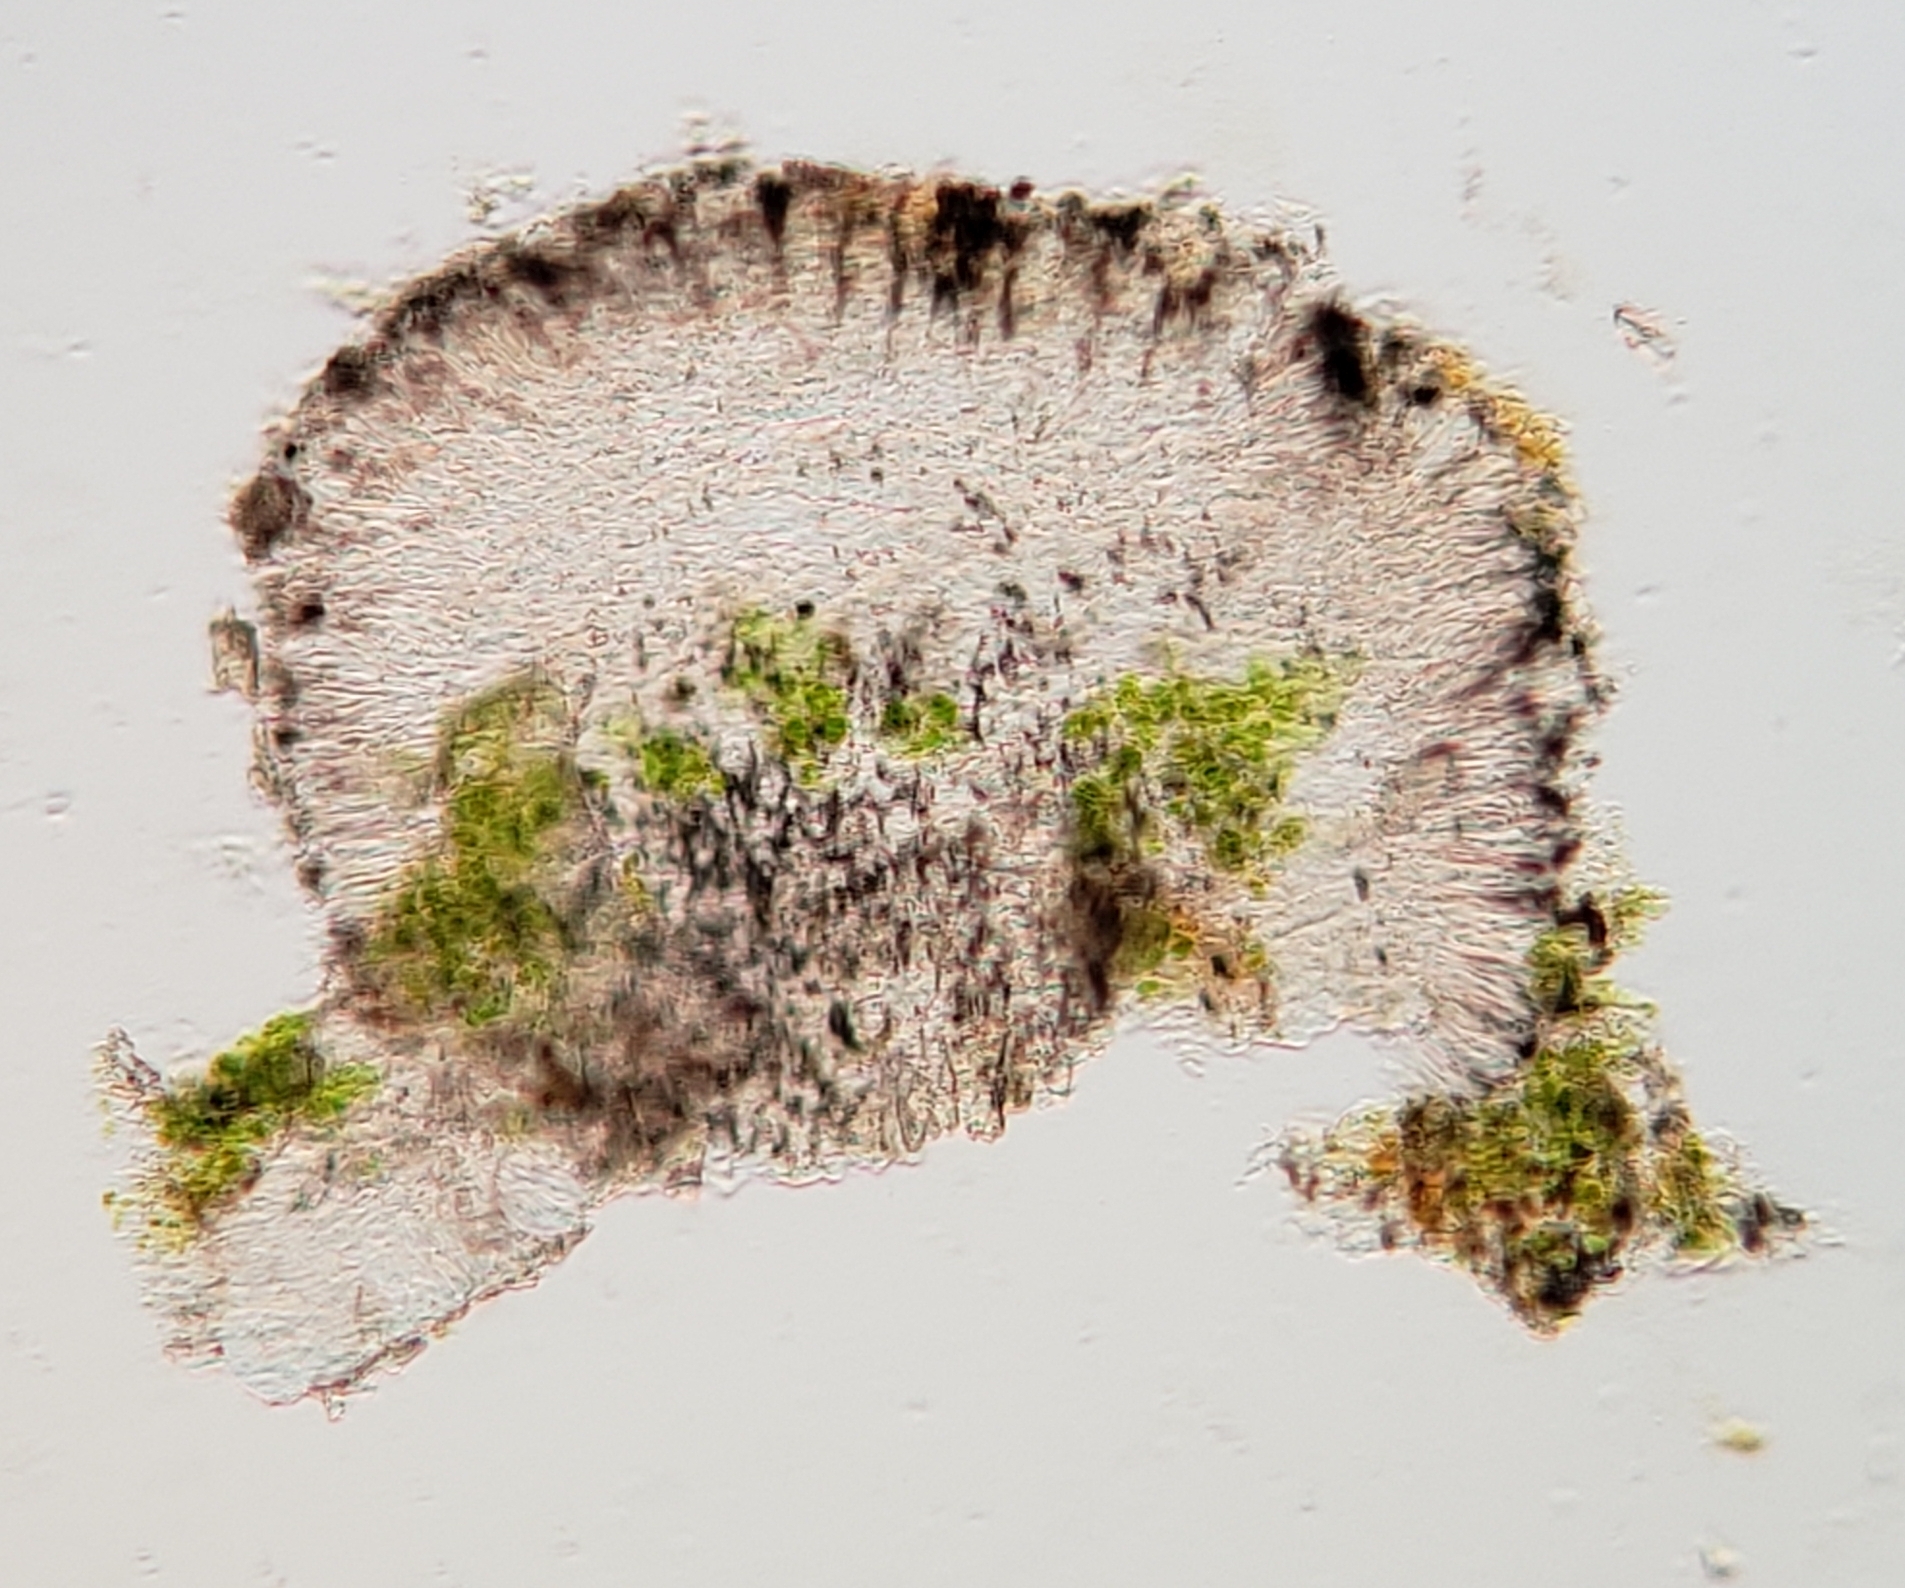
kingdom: Fungi
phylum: Ascomycota
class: Lecanoromycetes
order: Lecanorales
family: Byssolomataceae
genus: Micarea
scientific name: Micarea peliocarpa
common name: Shadow dot lichen
